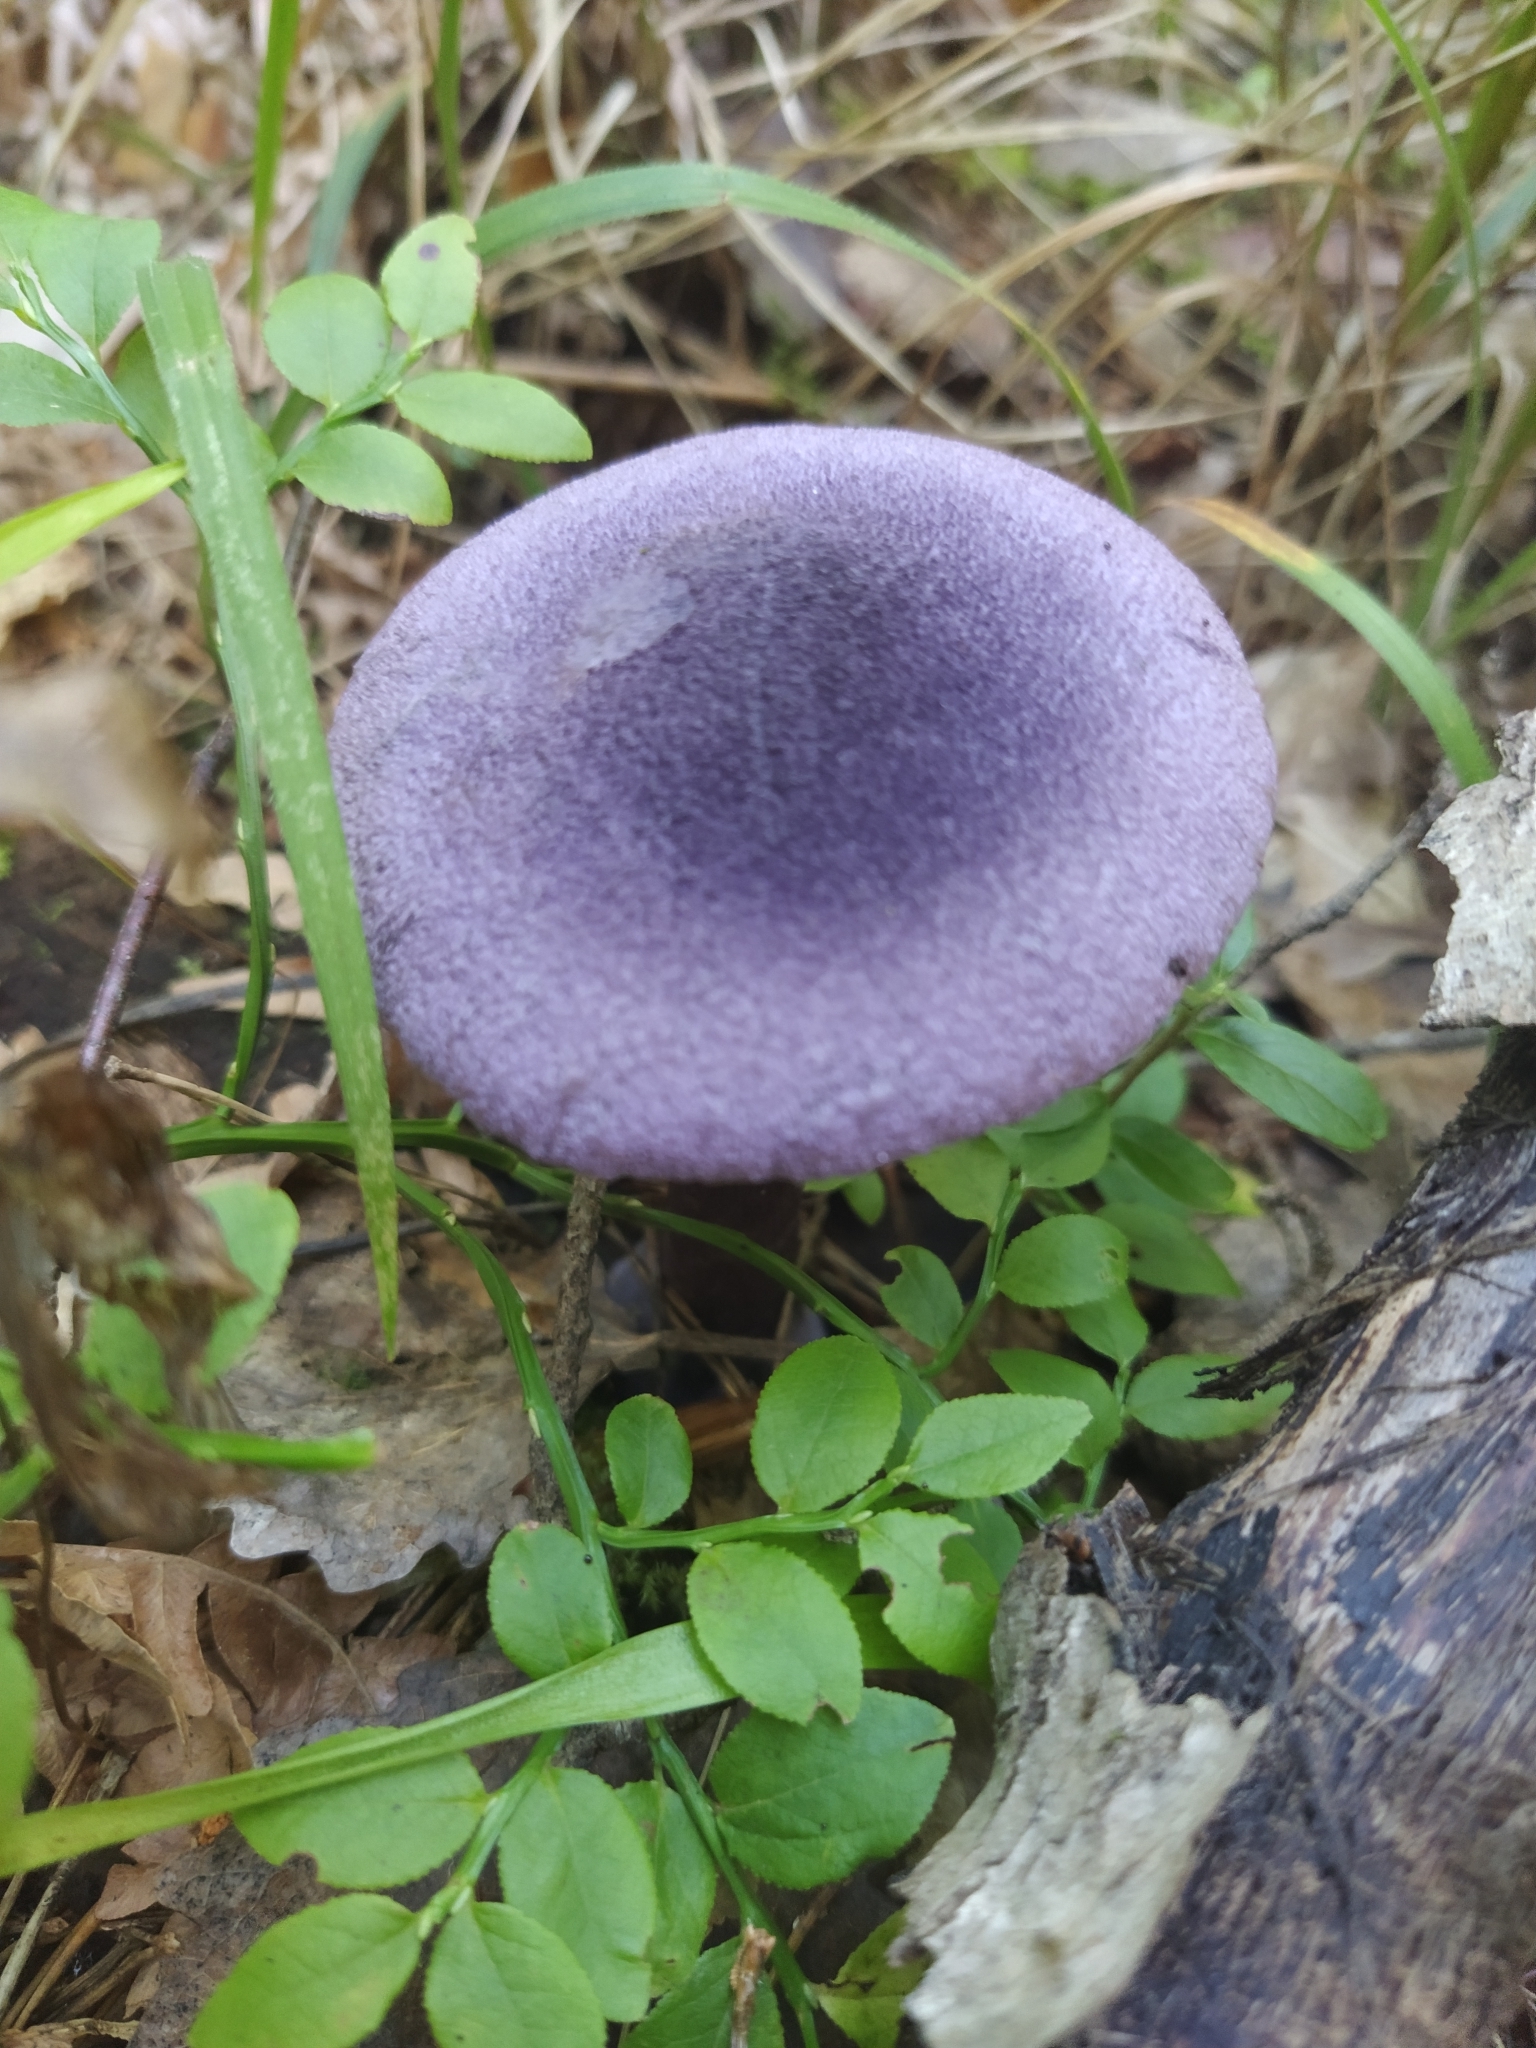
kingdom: Fungi
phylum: Basidiomycota
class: Agaricomycetes
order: Agaricales
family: Cortinariaceae
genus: Cortinarius
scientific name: Cortinarius violaceus
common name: Violet webcap
